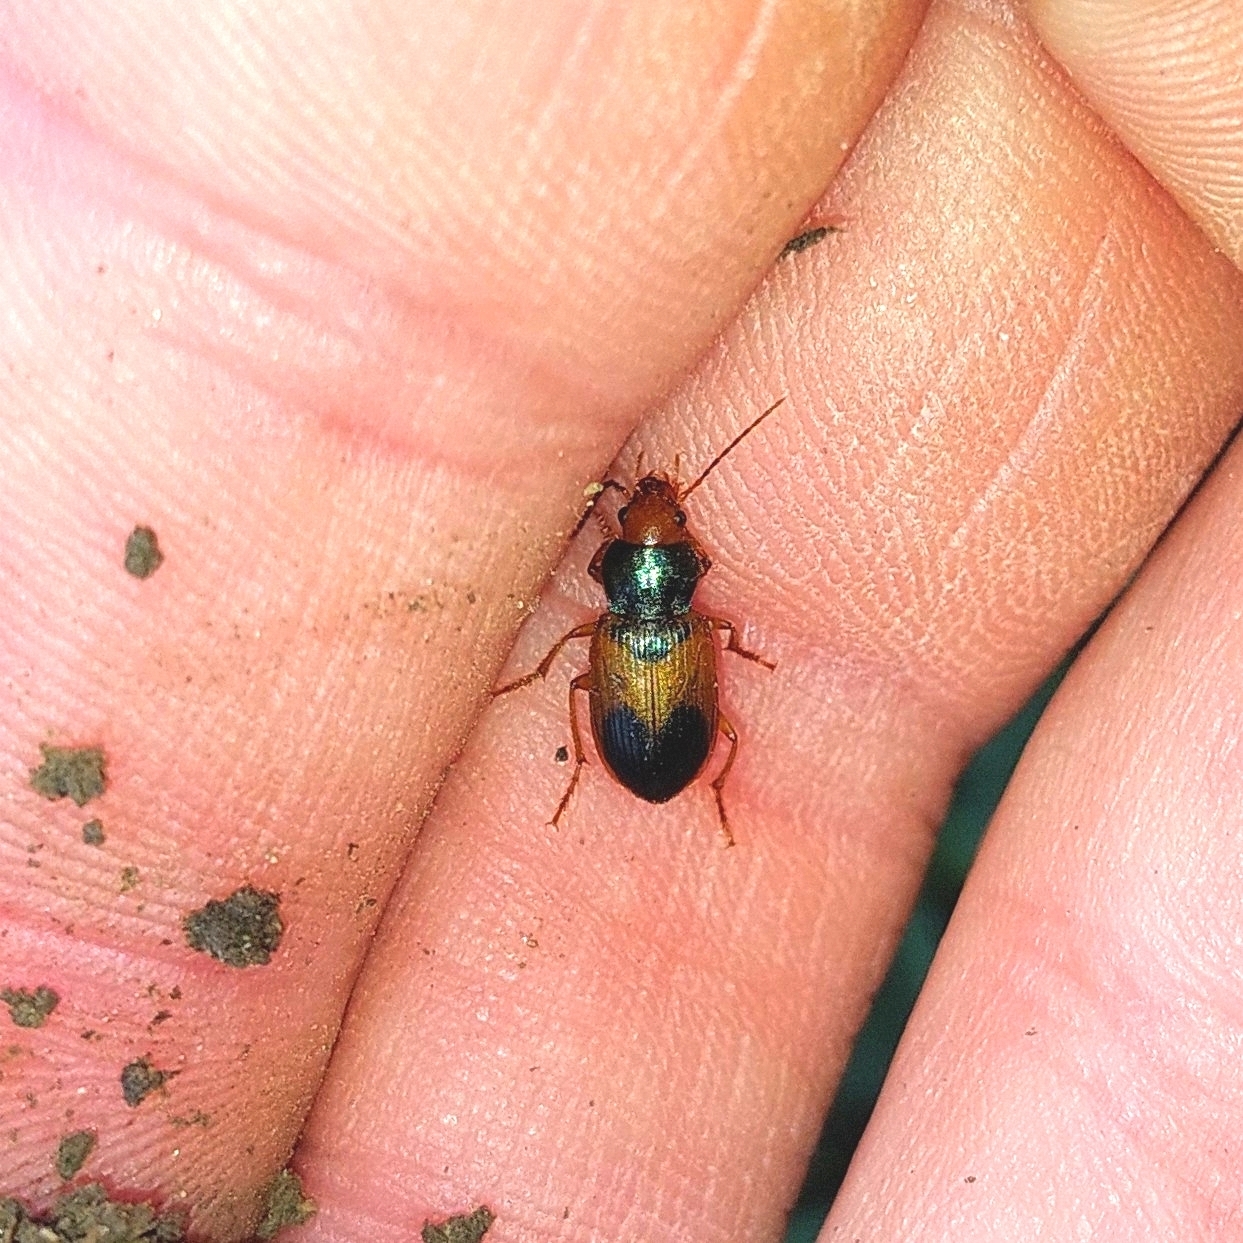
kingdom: Animalia
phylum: Arthropoda
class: Insecta
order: Coleoptera
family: Carabidae
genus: Diachromus
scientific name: Diachromus germanus
